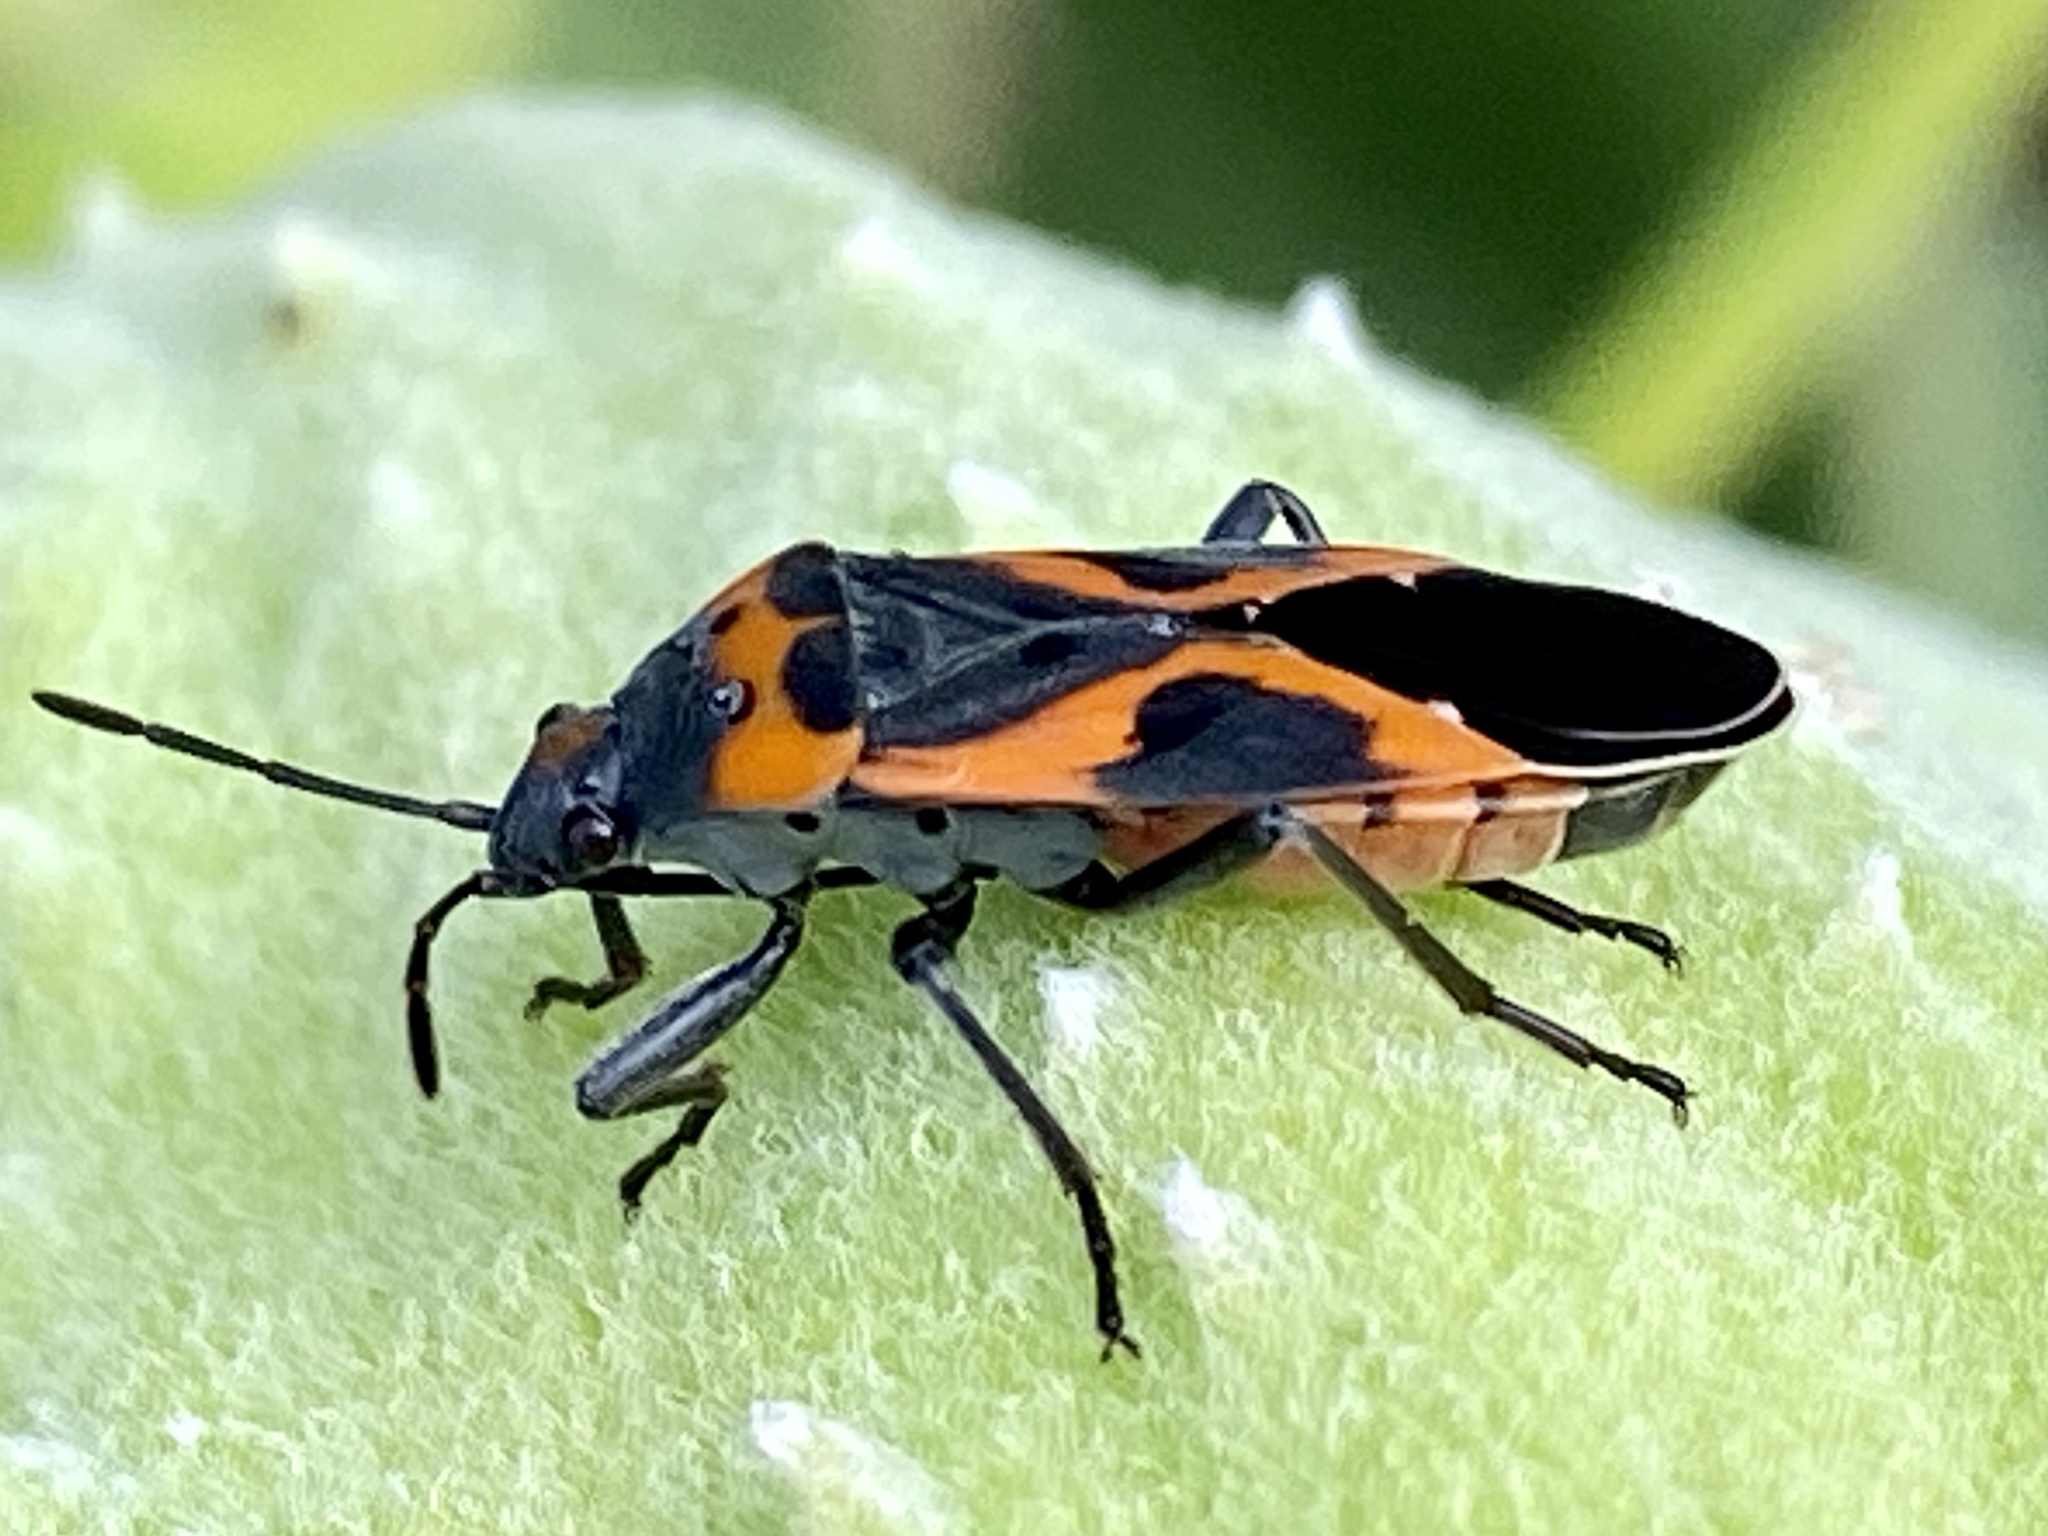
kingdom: Animalia
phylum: Arthropoda
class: Insecta
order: Hemiptera
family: Lygaeidae
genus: Lygaeus
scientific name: Lygaeus kalmii
